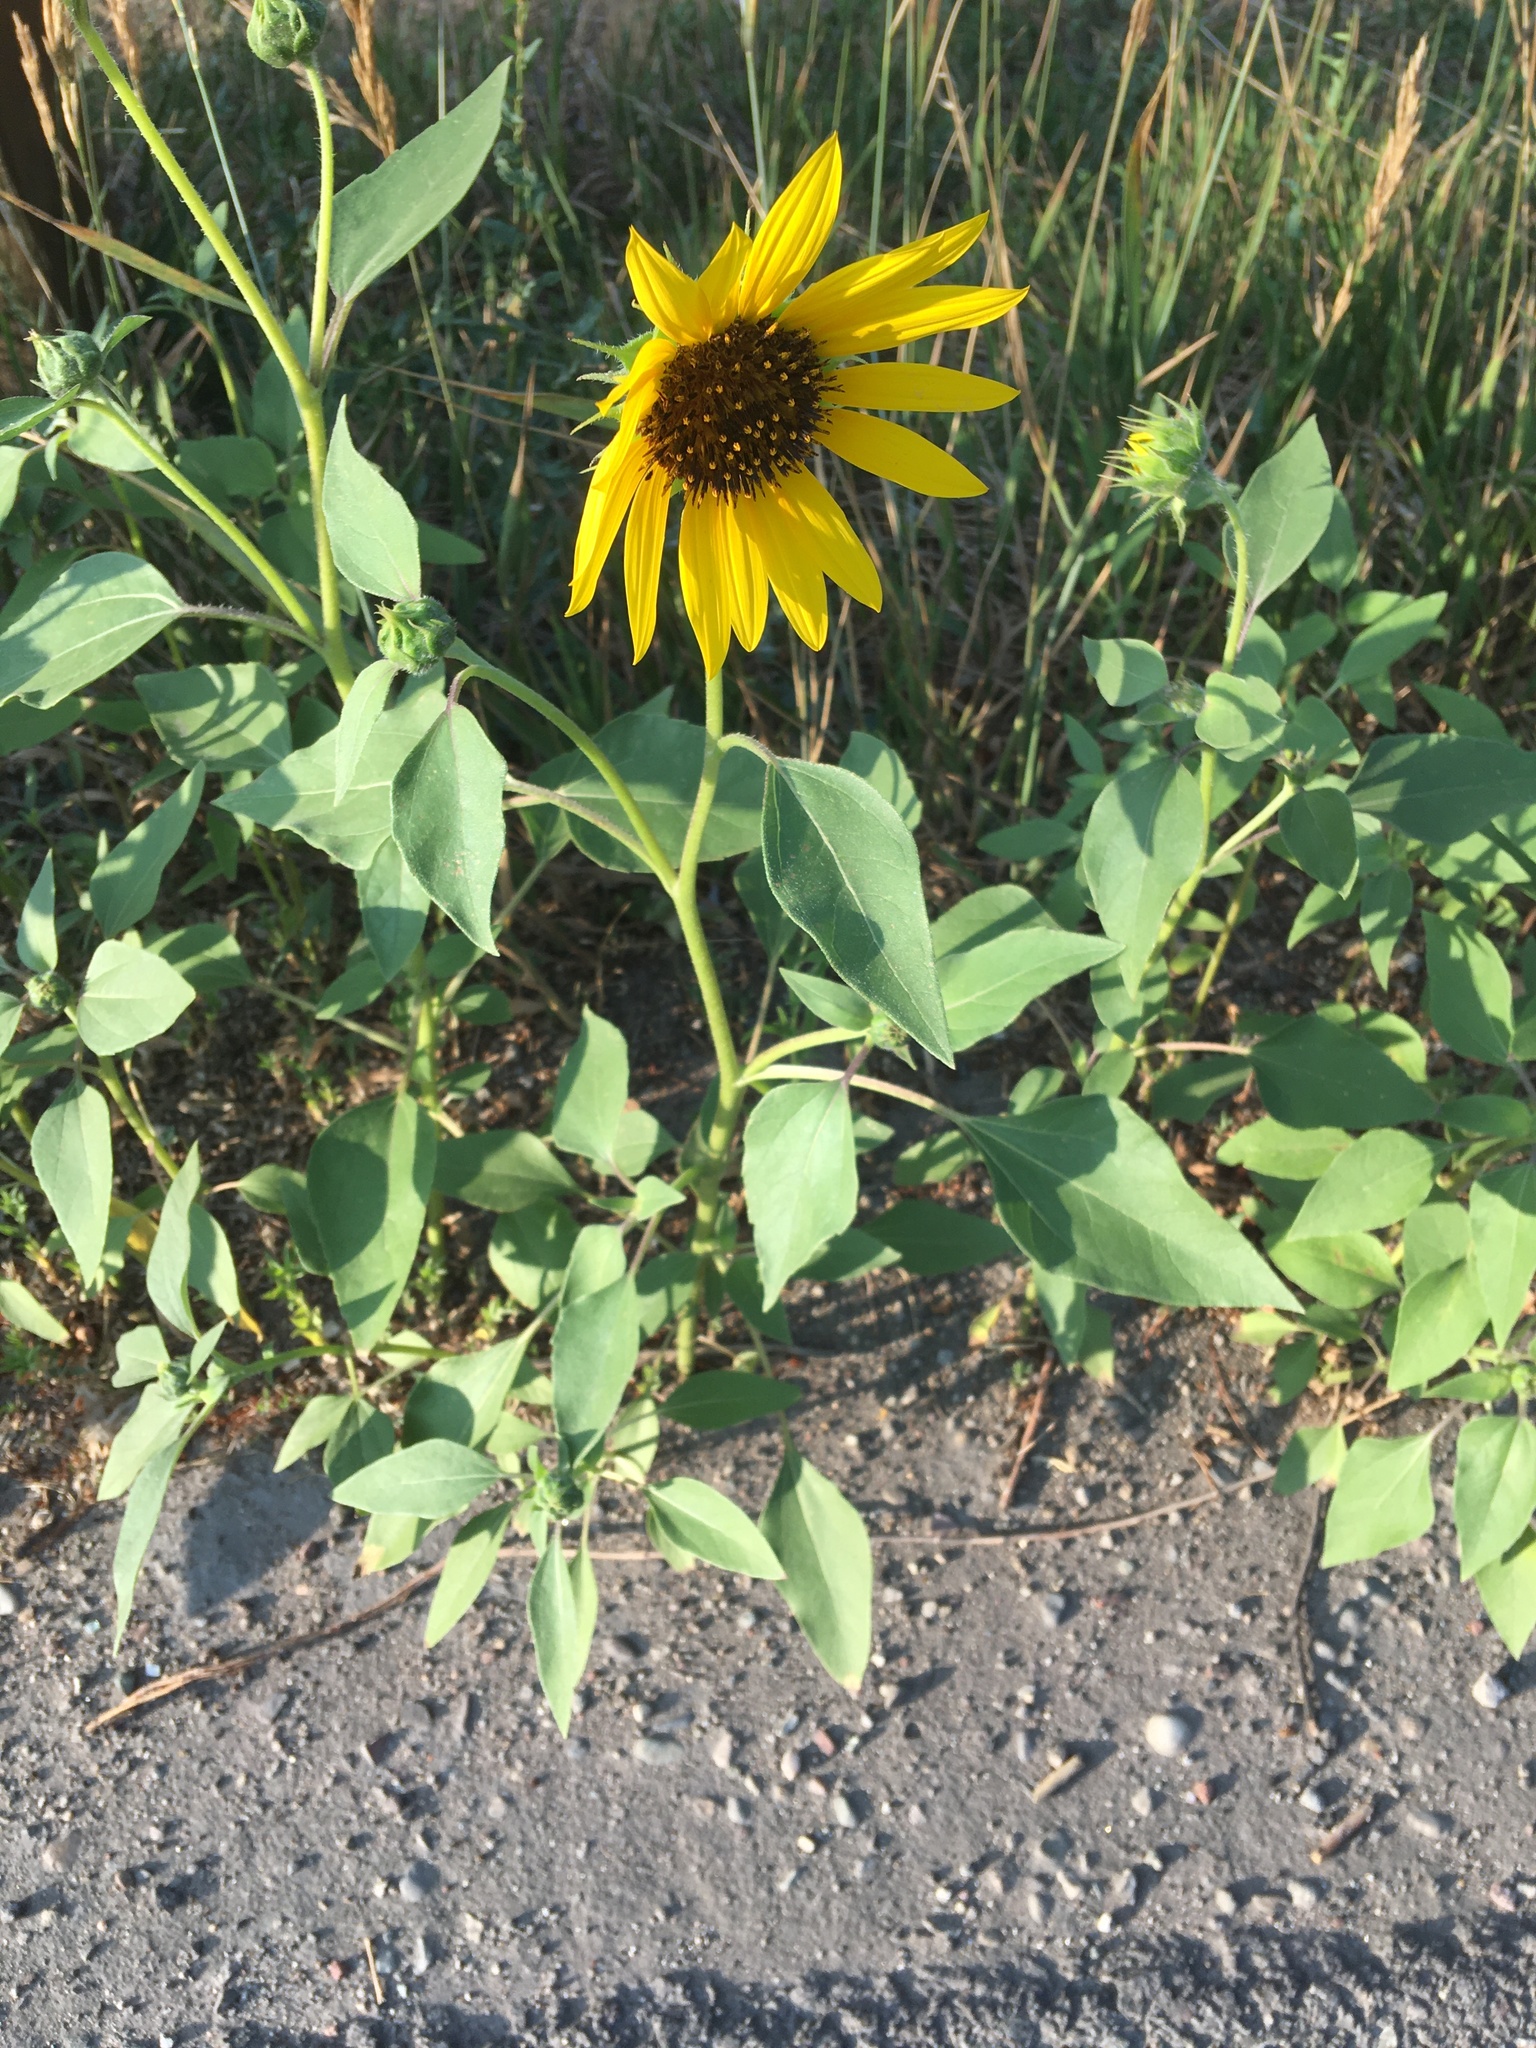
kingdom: Plantae
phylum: Tracheophyta
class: Magnoliopsida
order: Asterales
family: Asteraceae
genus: Helianthus
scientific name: Helianthus annuus
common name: Sunflower
